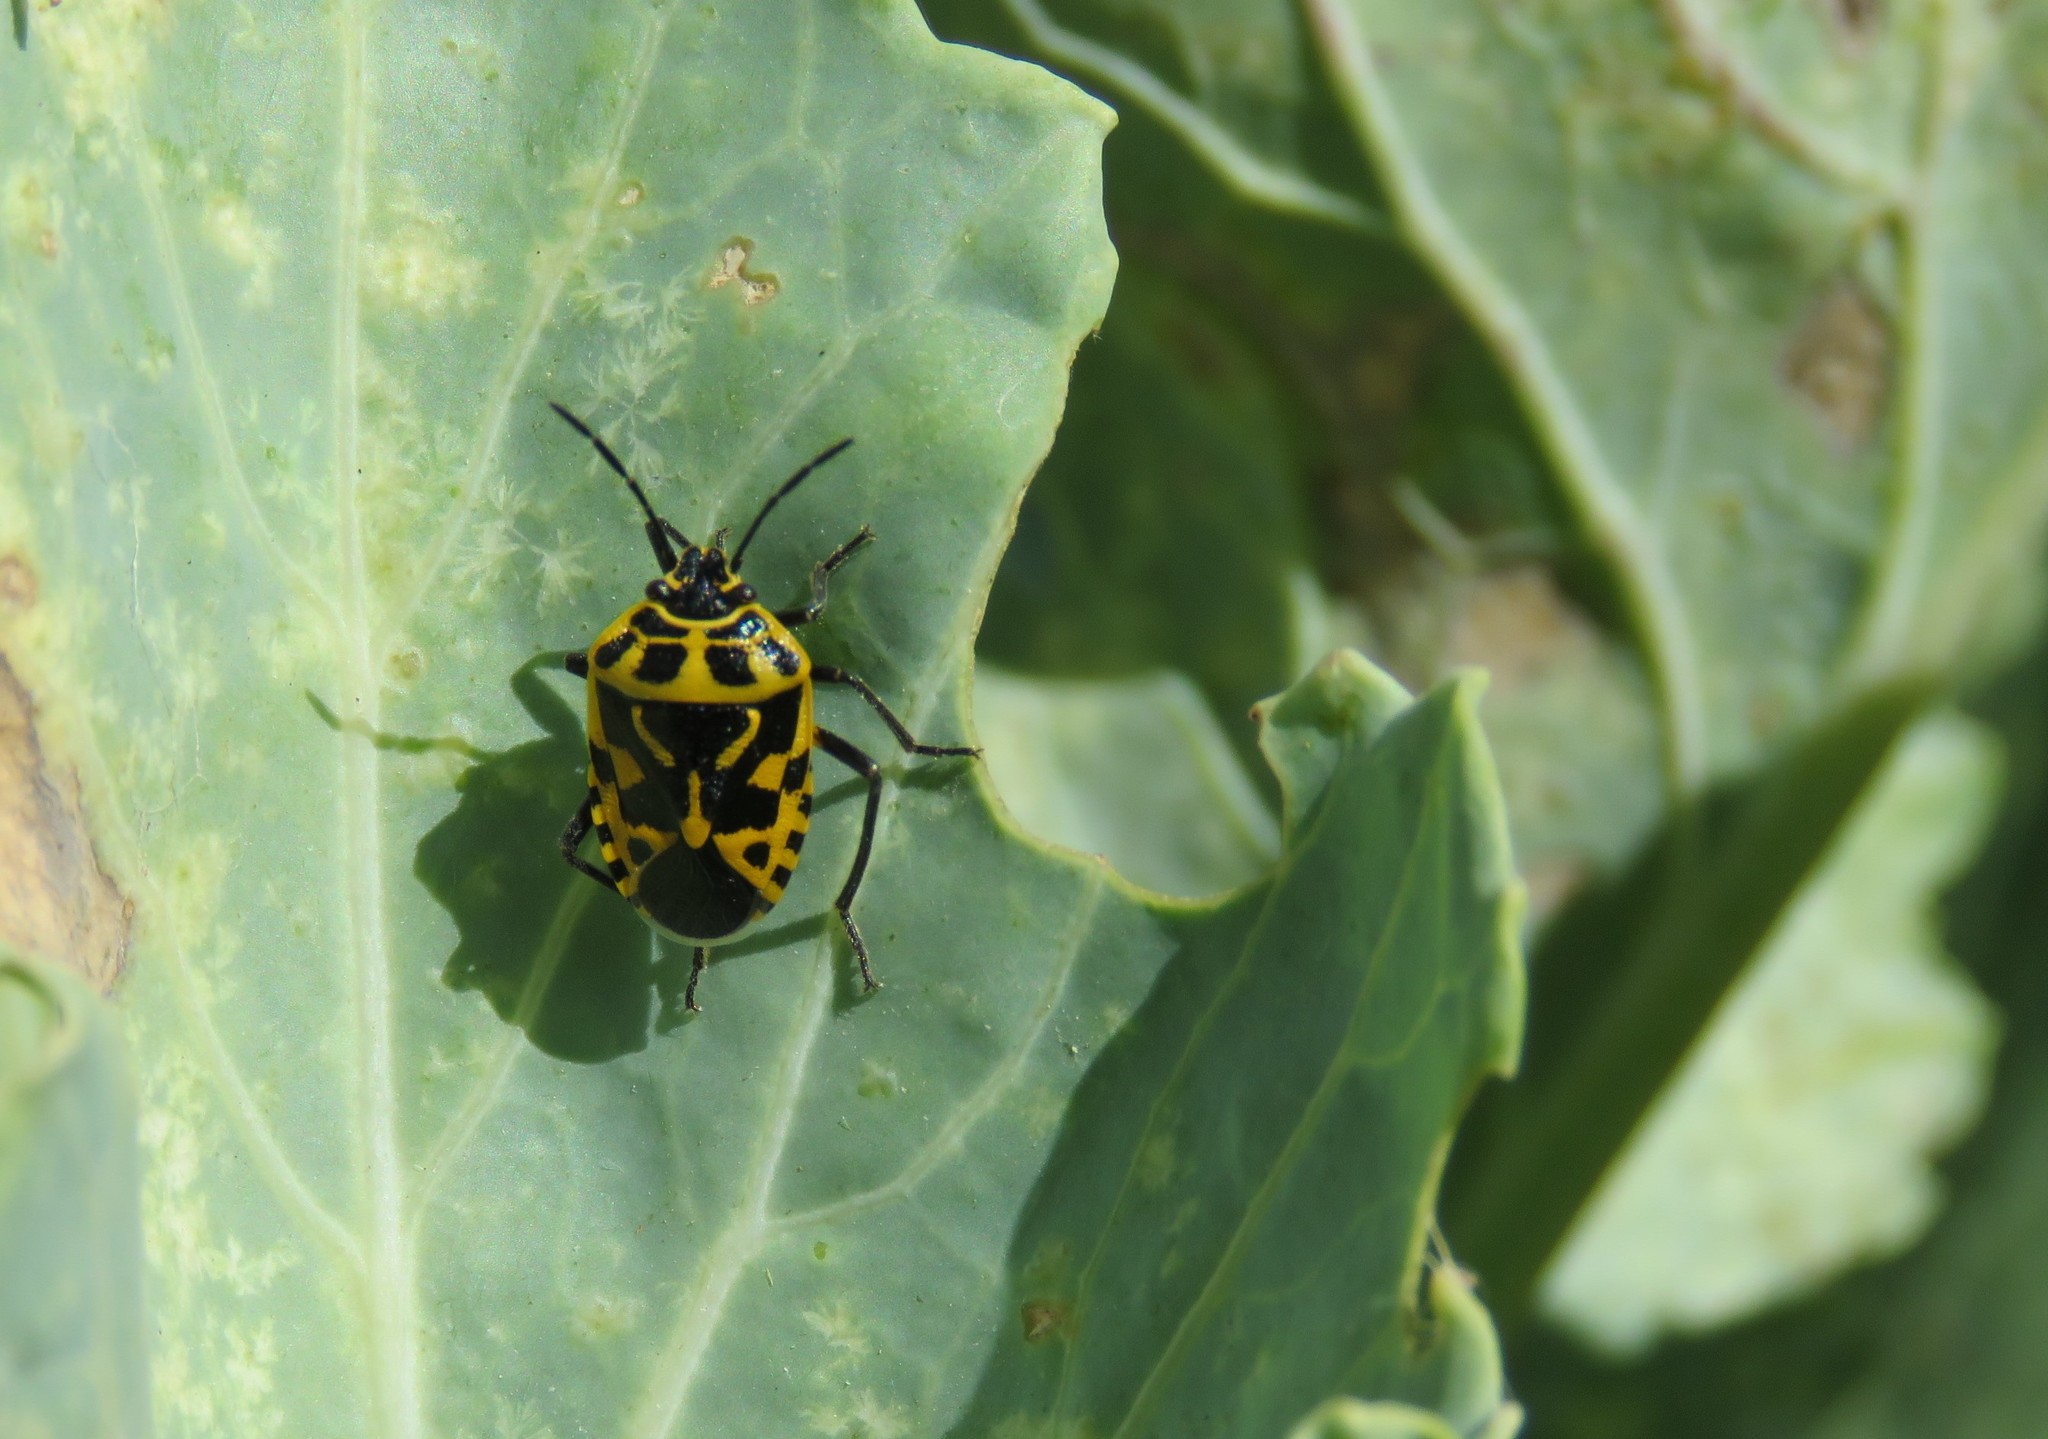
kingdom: Animalia
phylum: Arthropoda
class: Insecta
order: Hemiptera
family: Pentatomidae
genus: Eurydema
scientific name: Eurydema ventralis
